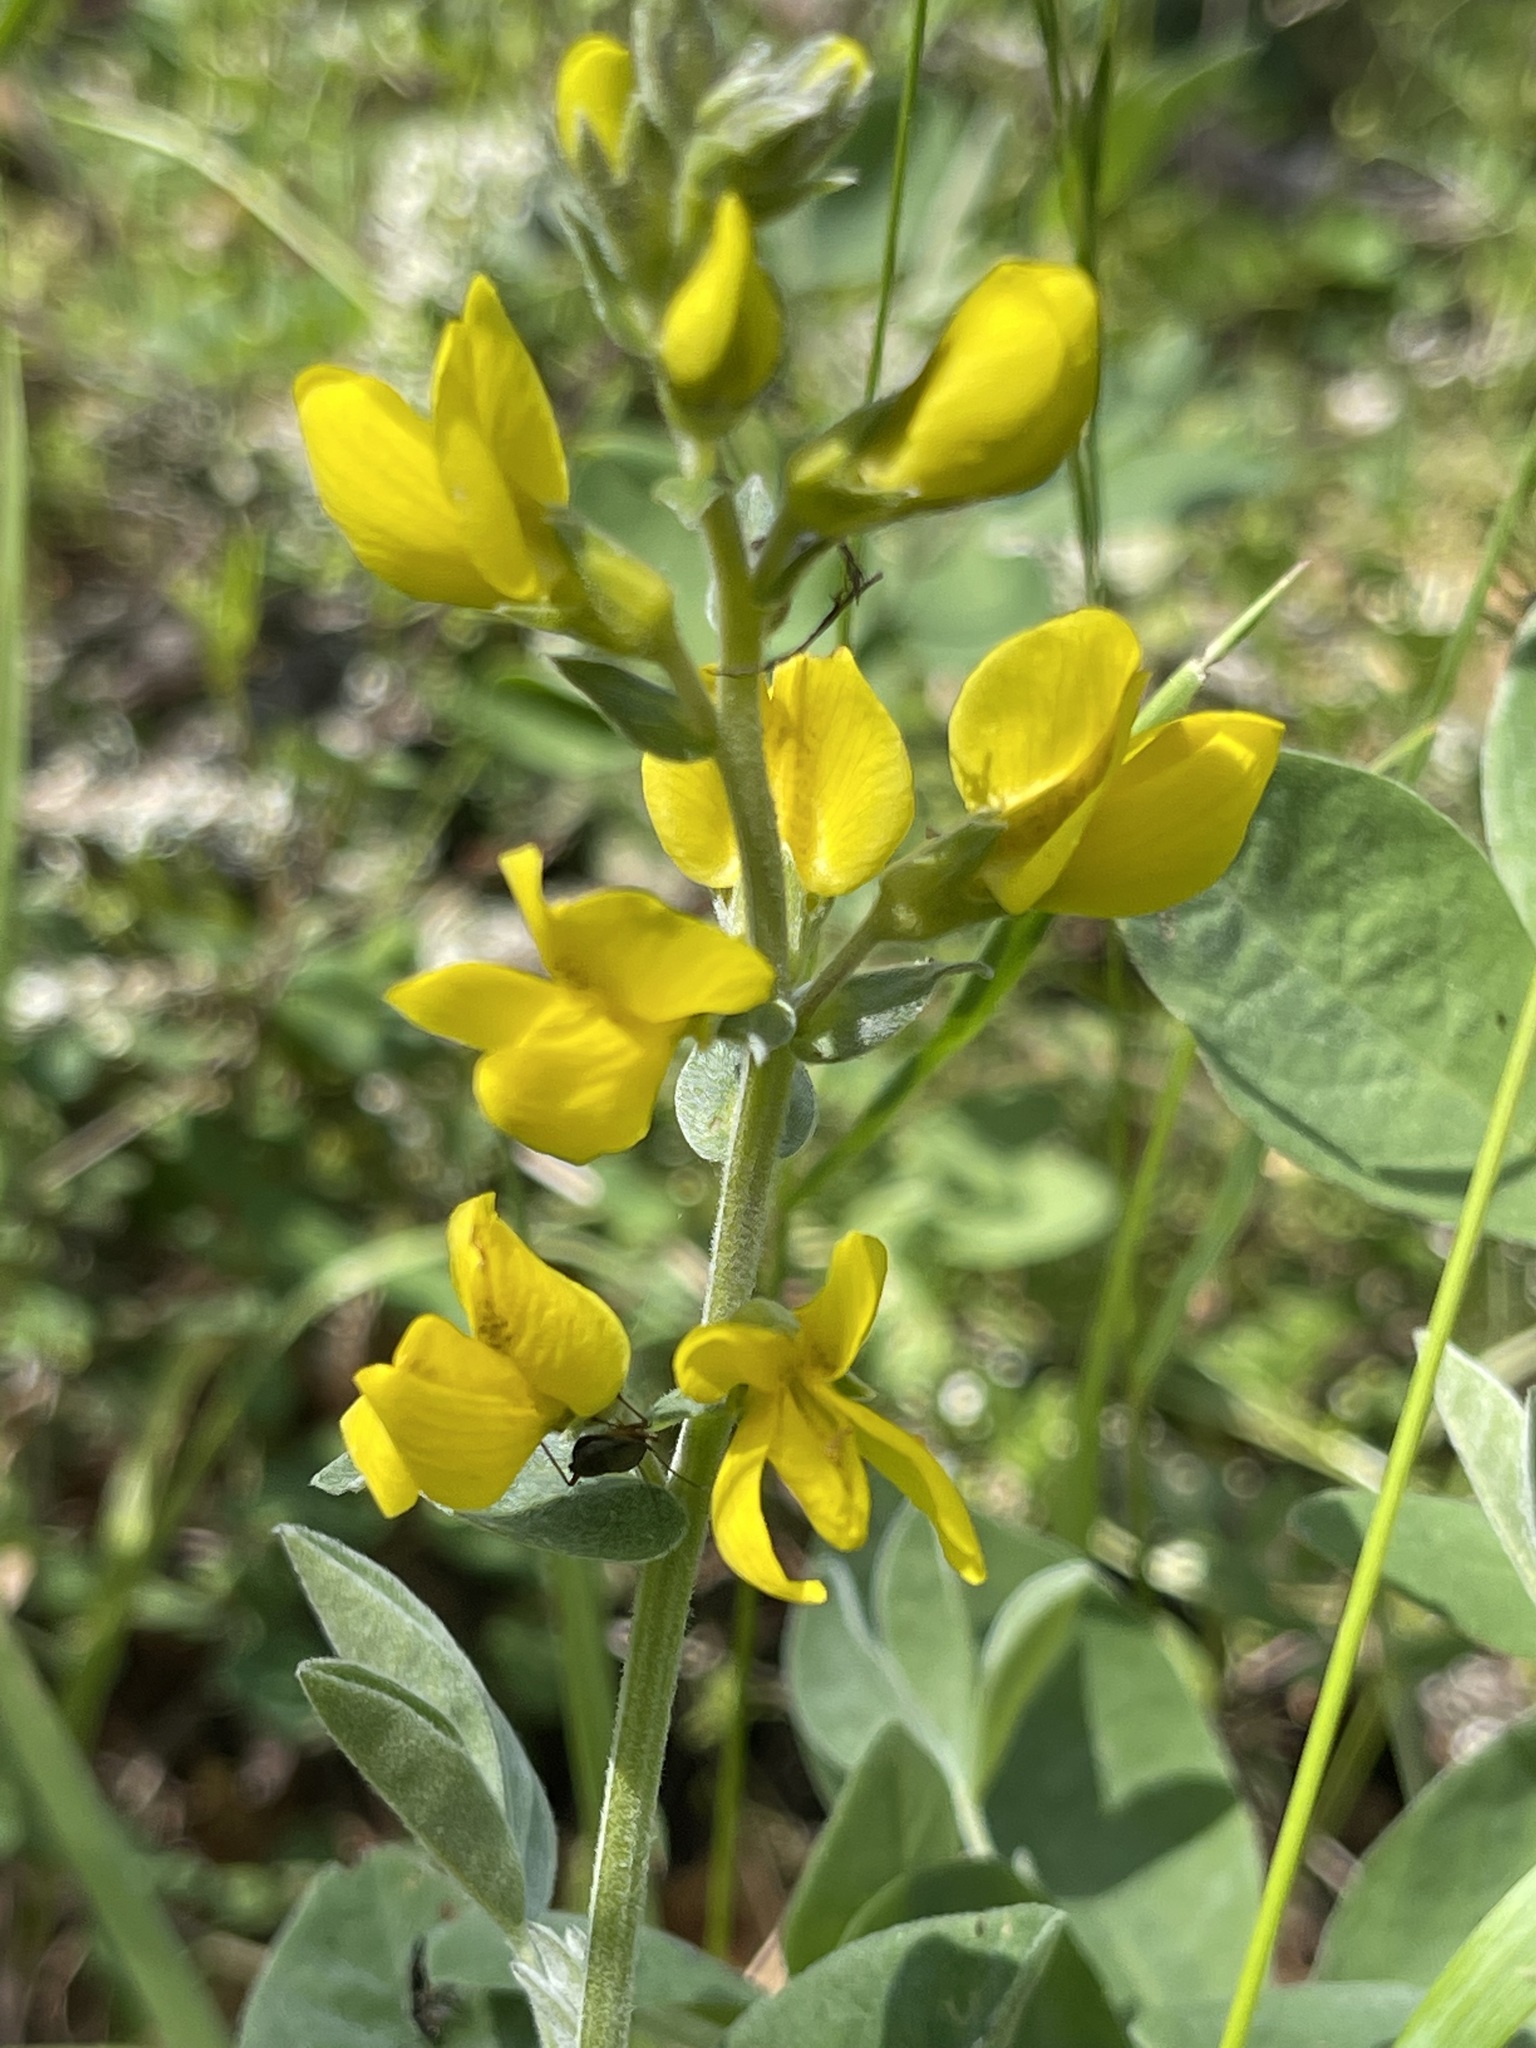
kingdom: Plantae
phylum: Tracheophyta
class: Magnoliopsida
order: Fabales
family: Fabaceae
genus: Thermopsis
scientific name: Thermopsis californica
